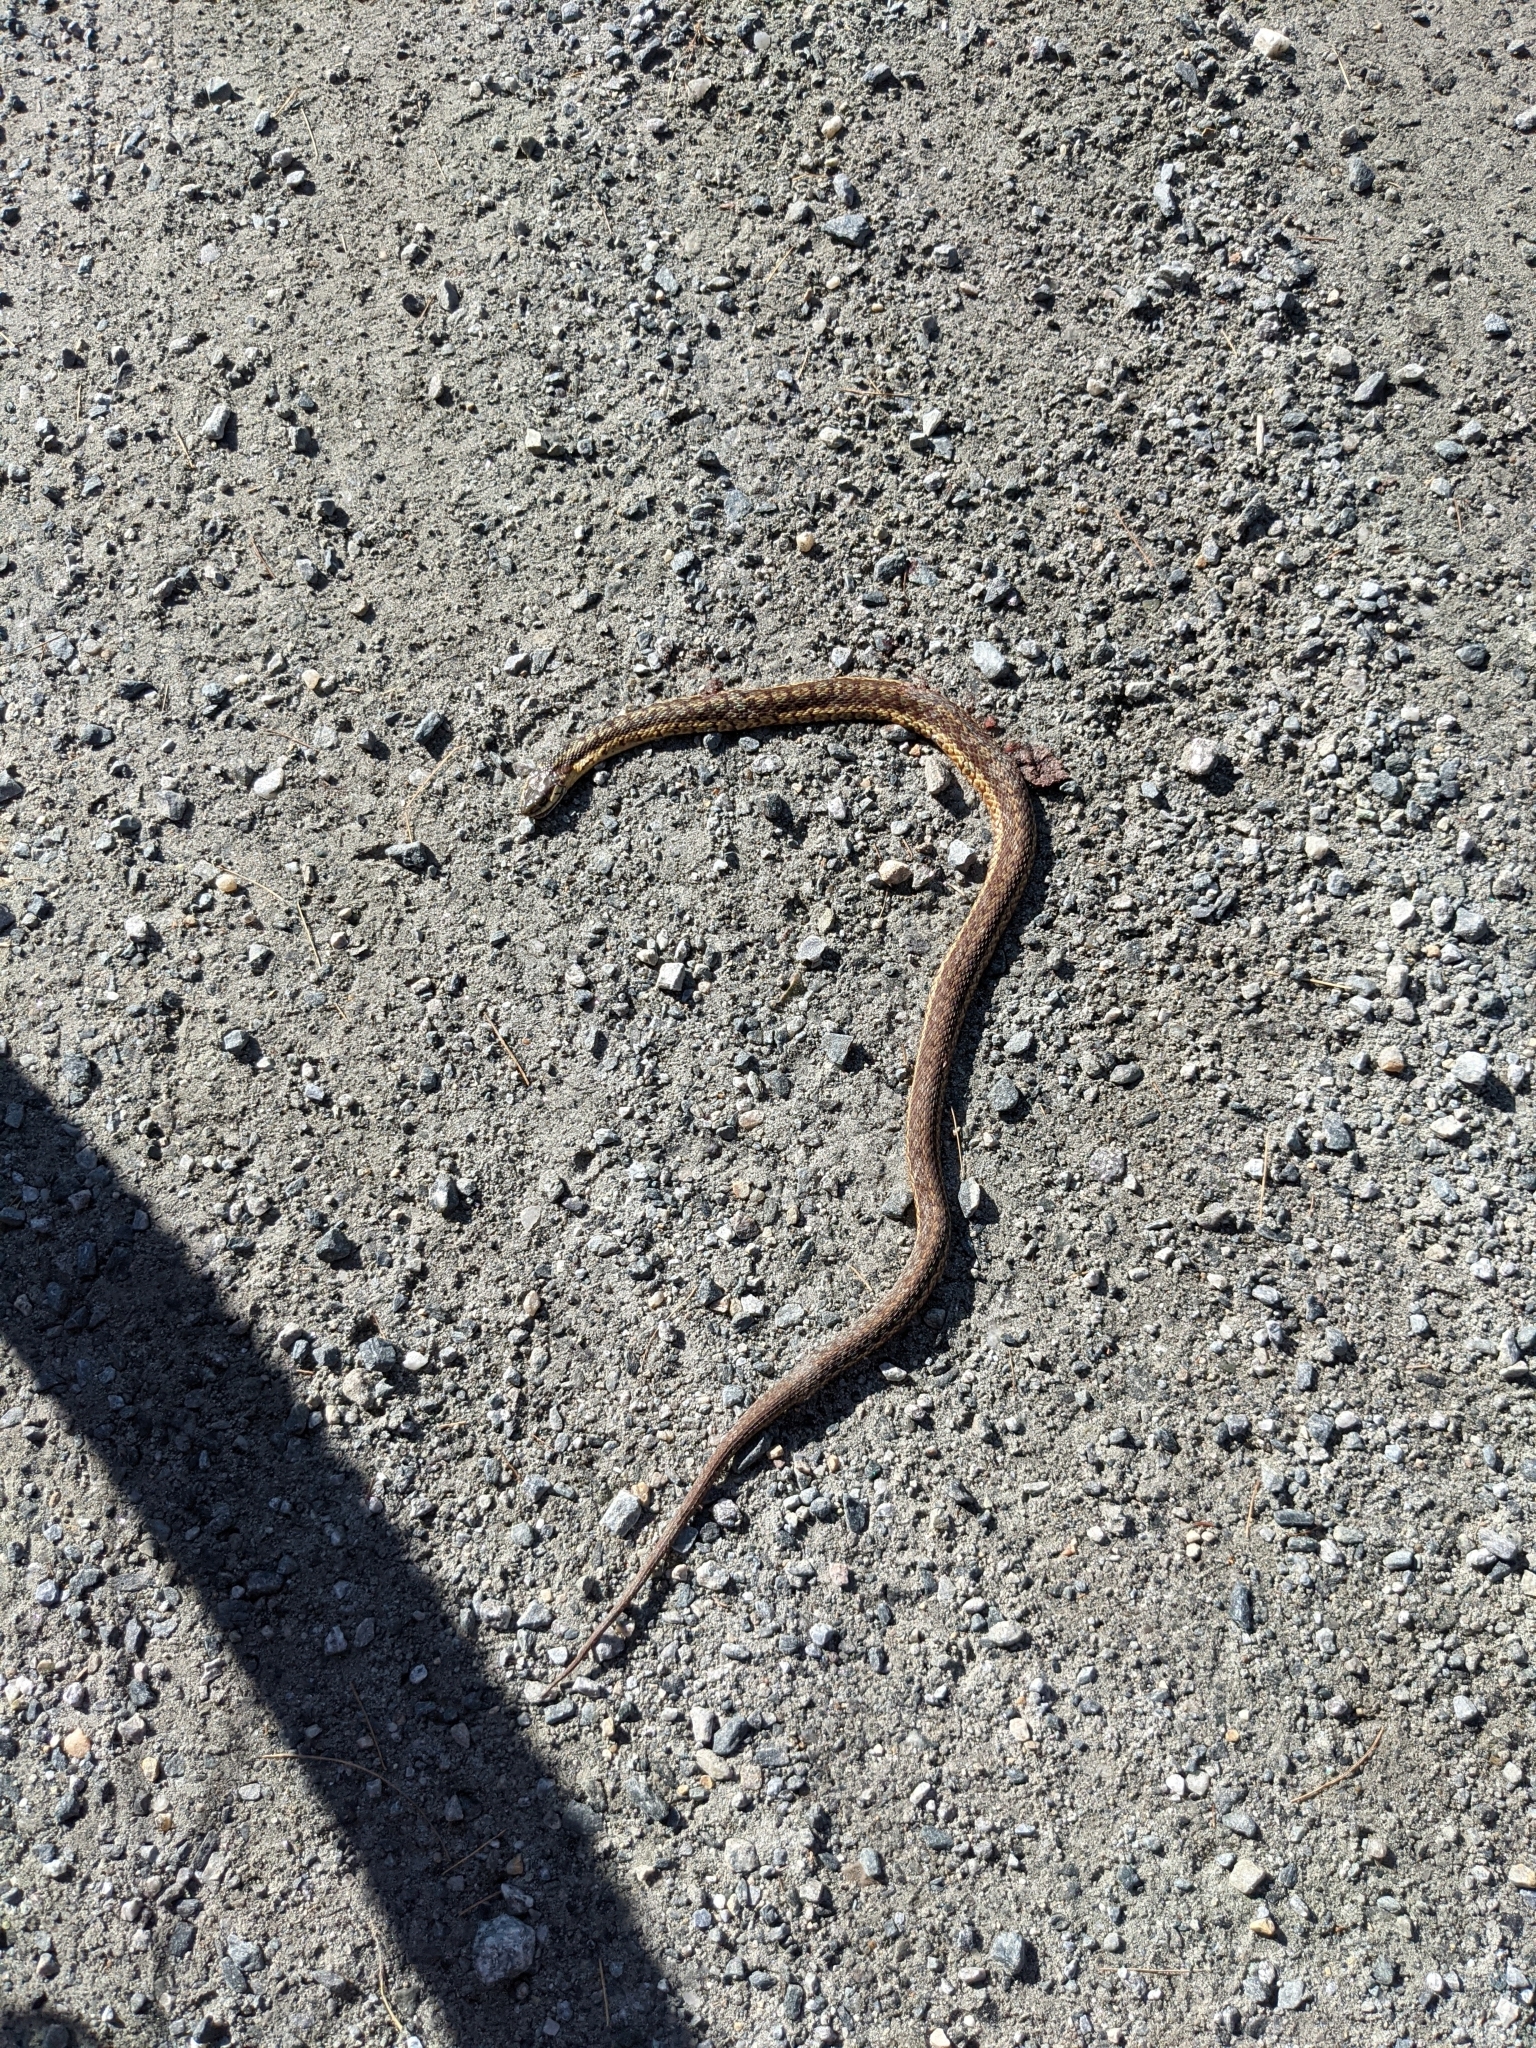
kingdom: Animalia
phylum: Chordata
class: Squamata
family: Colubridae
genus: Thamnophis
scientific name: Thamnophis sirtalis
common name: Common garter snake
